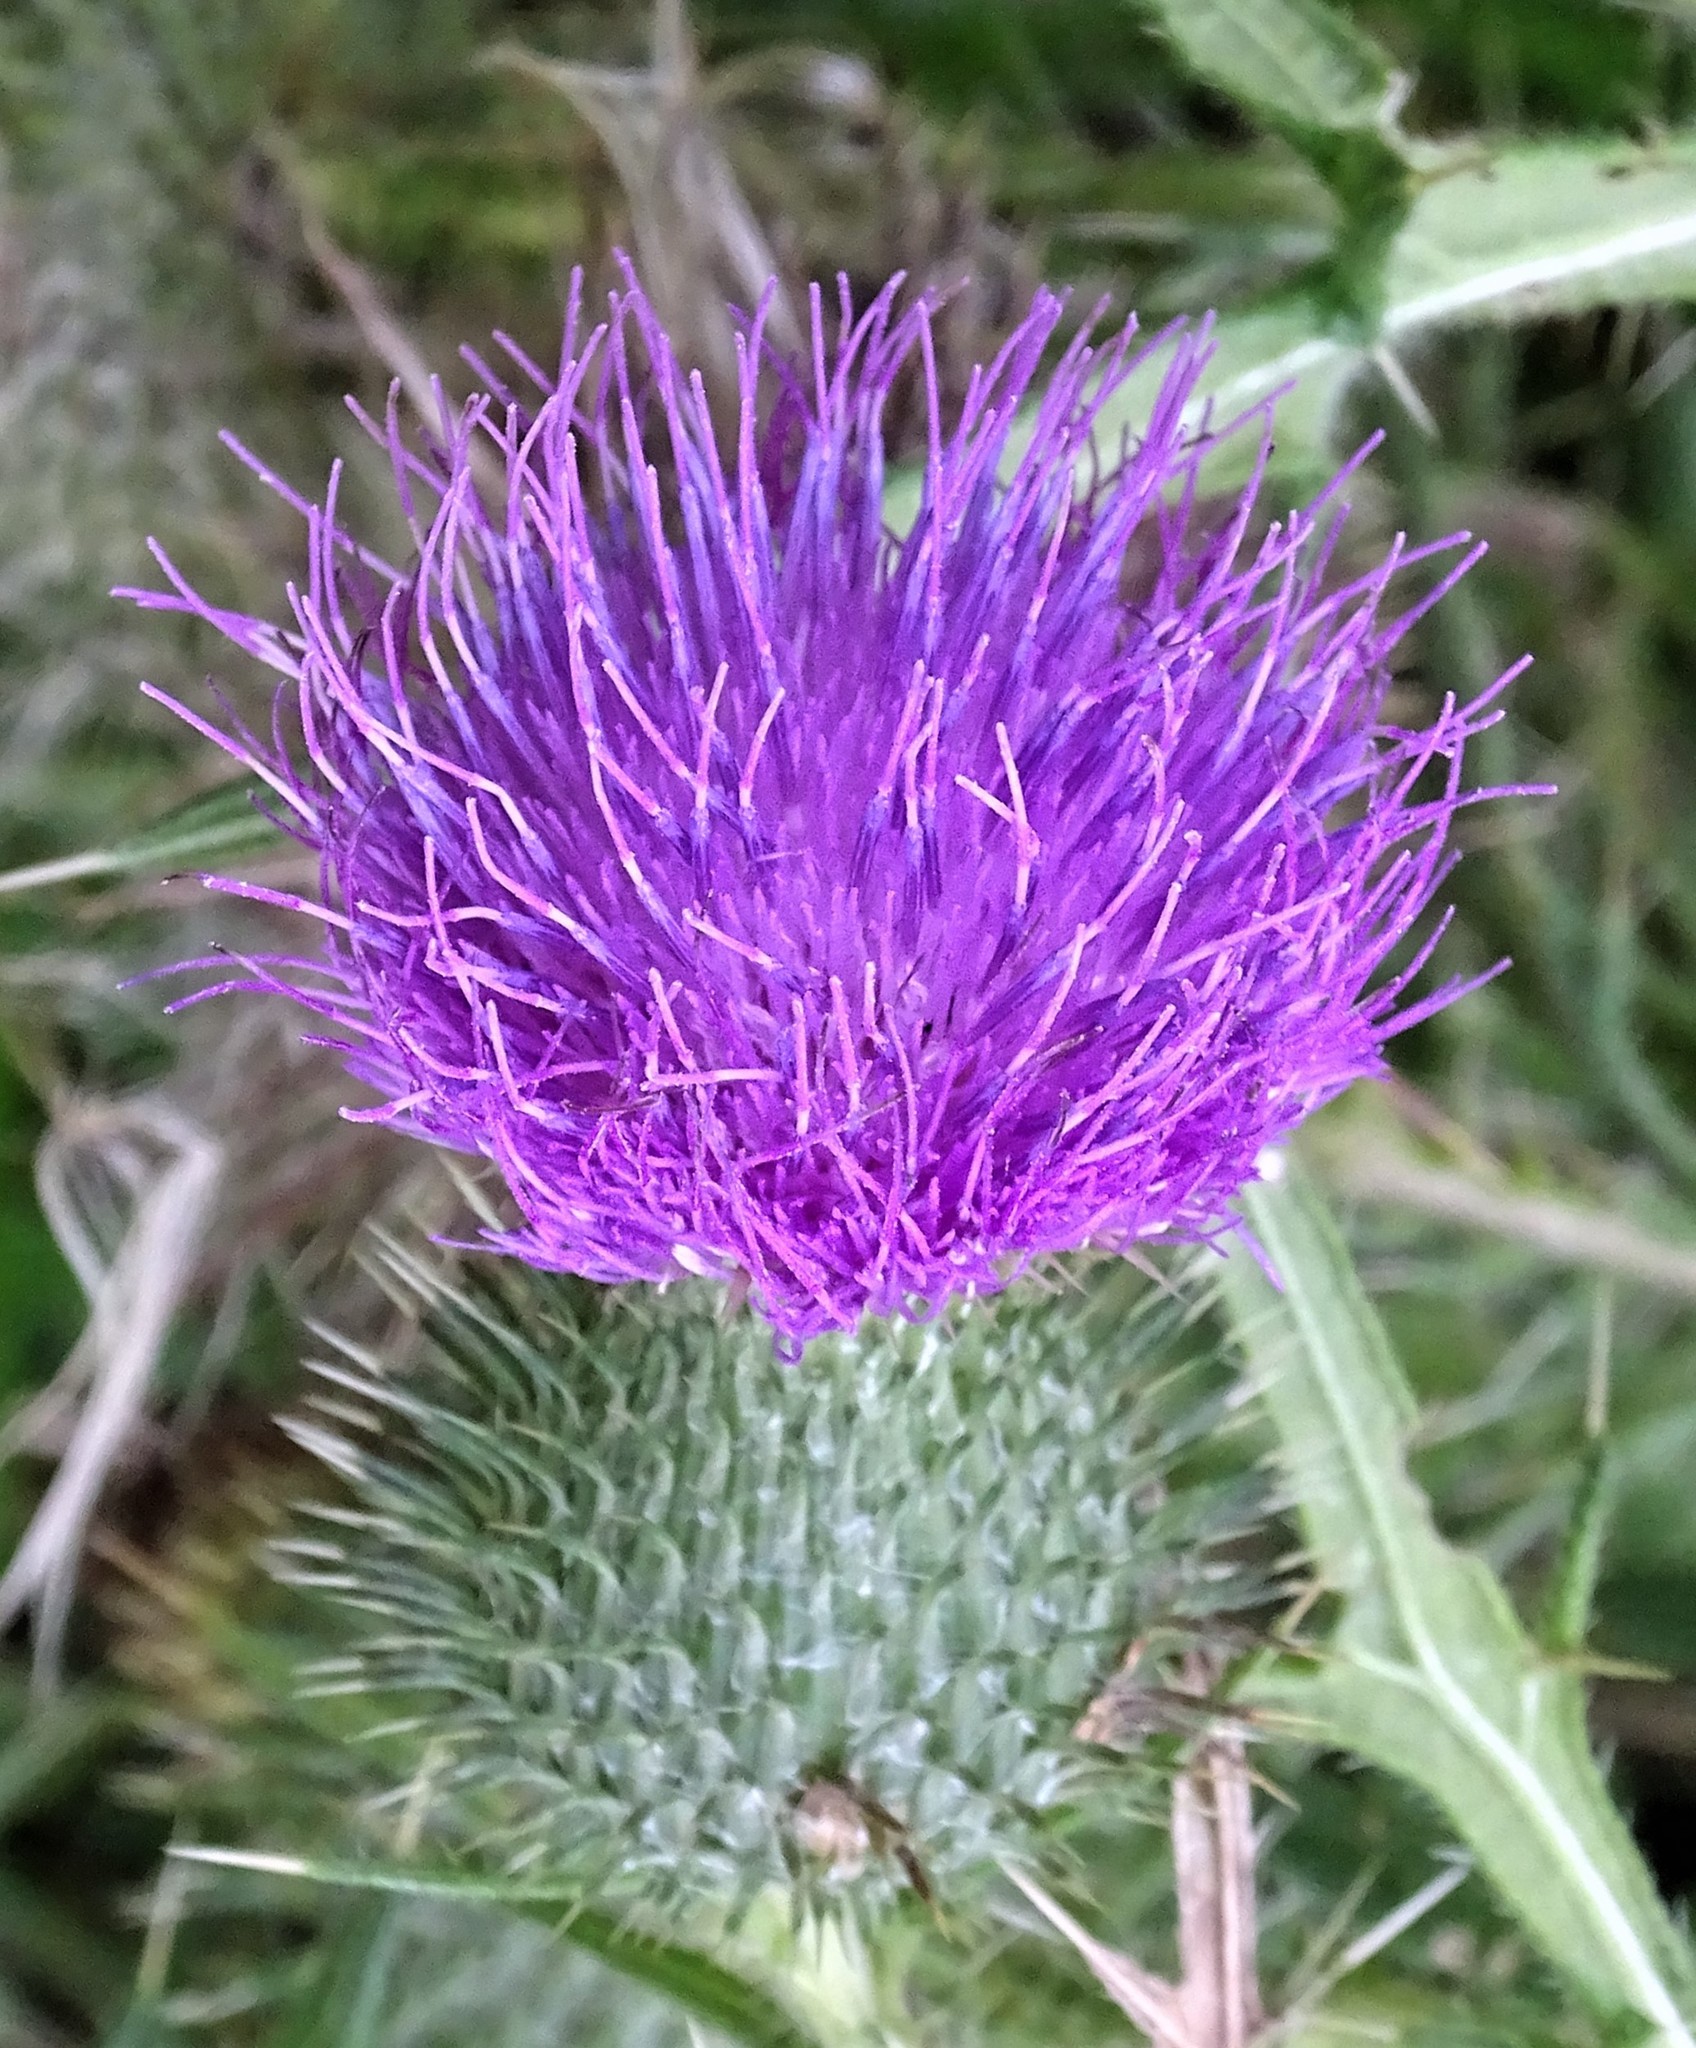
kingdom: Plantae
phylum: Tracheophyta
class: Magnoliopsida
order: Asterales
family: Asteraceae
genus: Cirsium
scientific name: Cirsium vulgare
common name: Bull thistle
